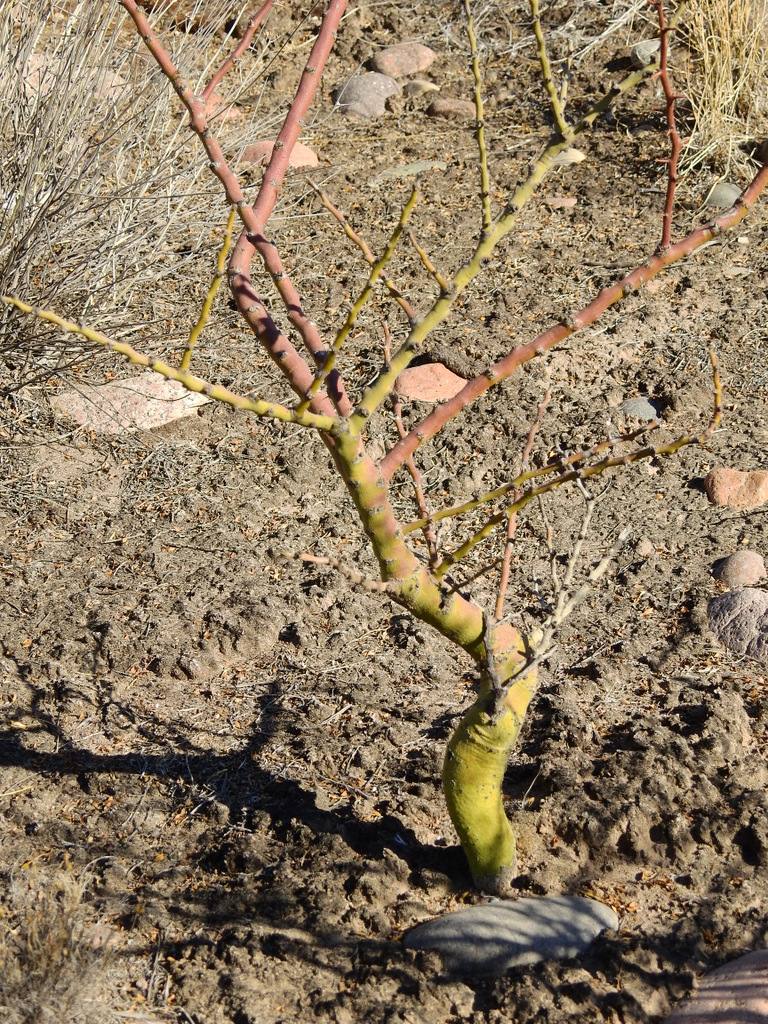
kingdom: Plantae
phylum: Tracheophyta
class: Magnoliopsida
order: Fabales
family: Fabaceae
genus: Parkinsonia
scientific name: Parkinsonia praecox
